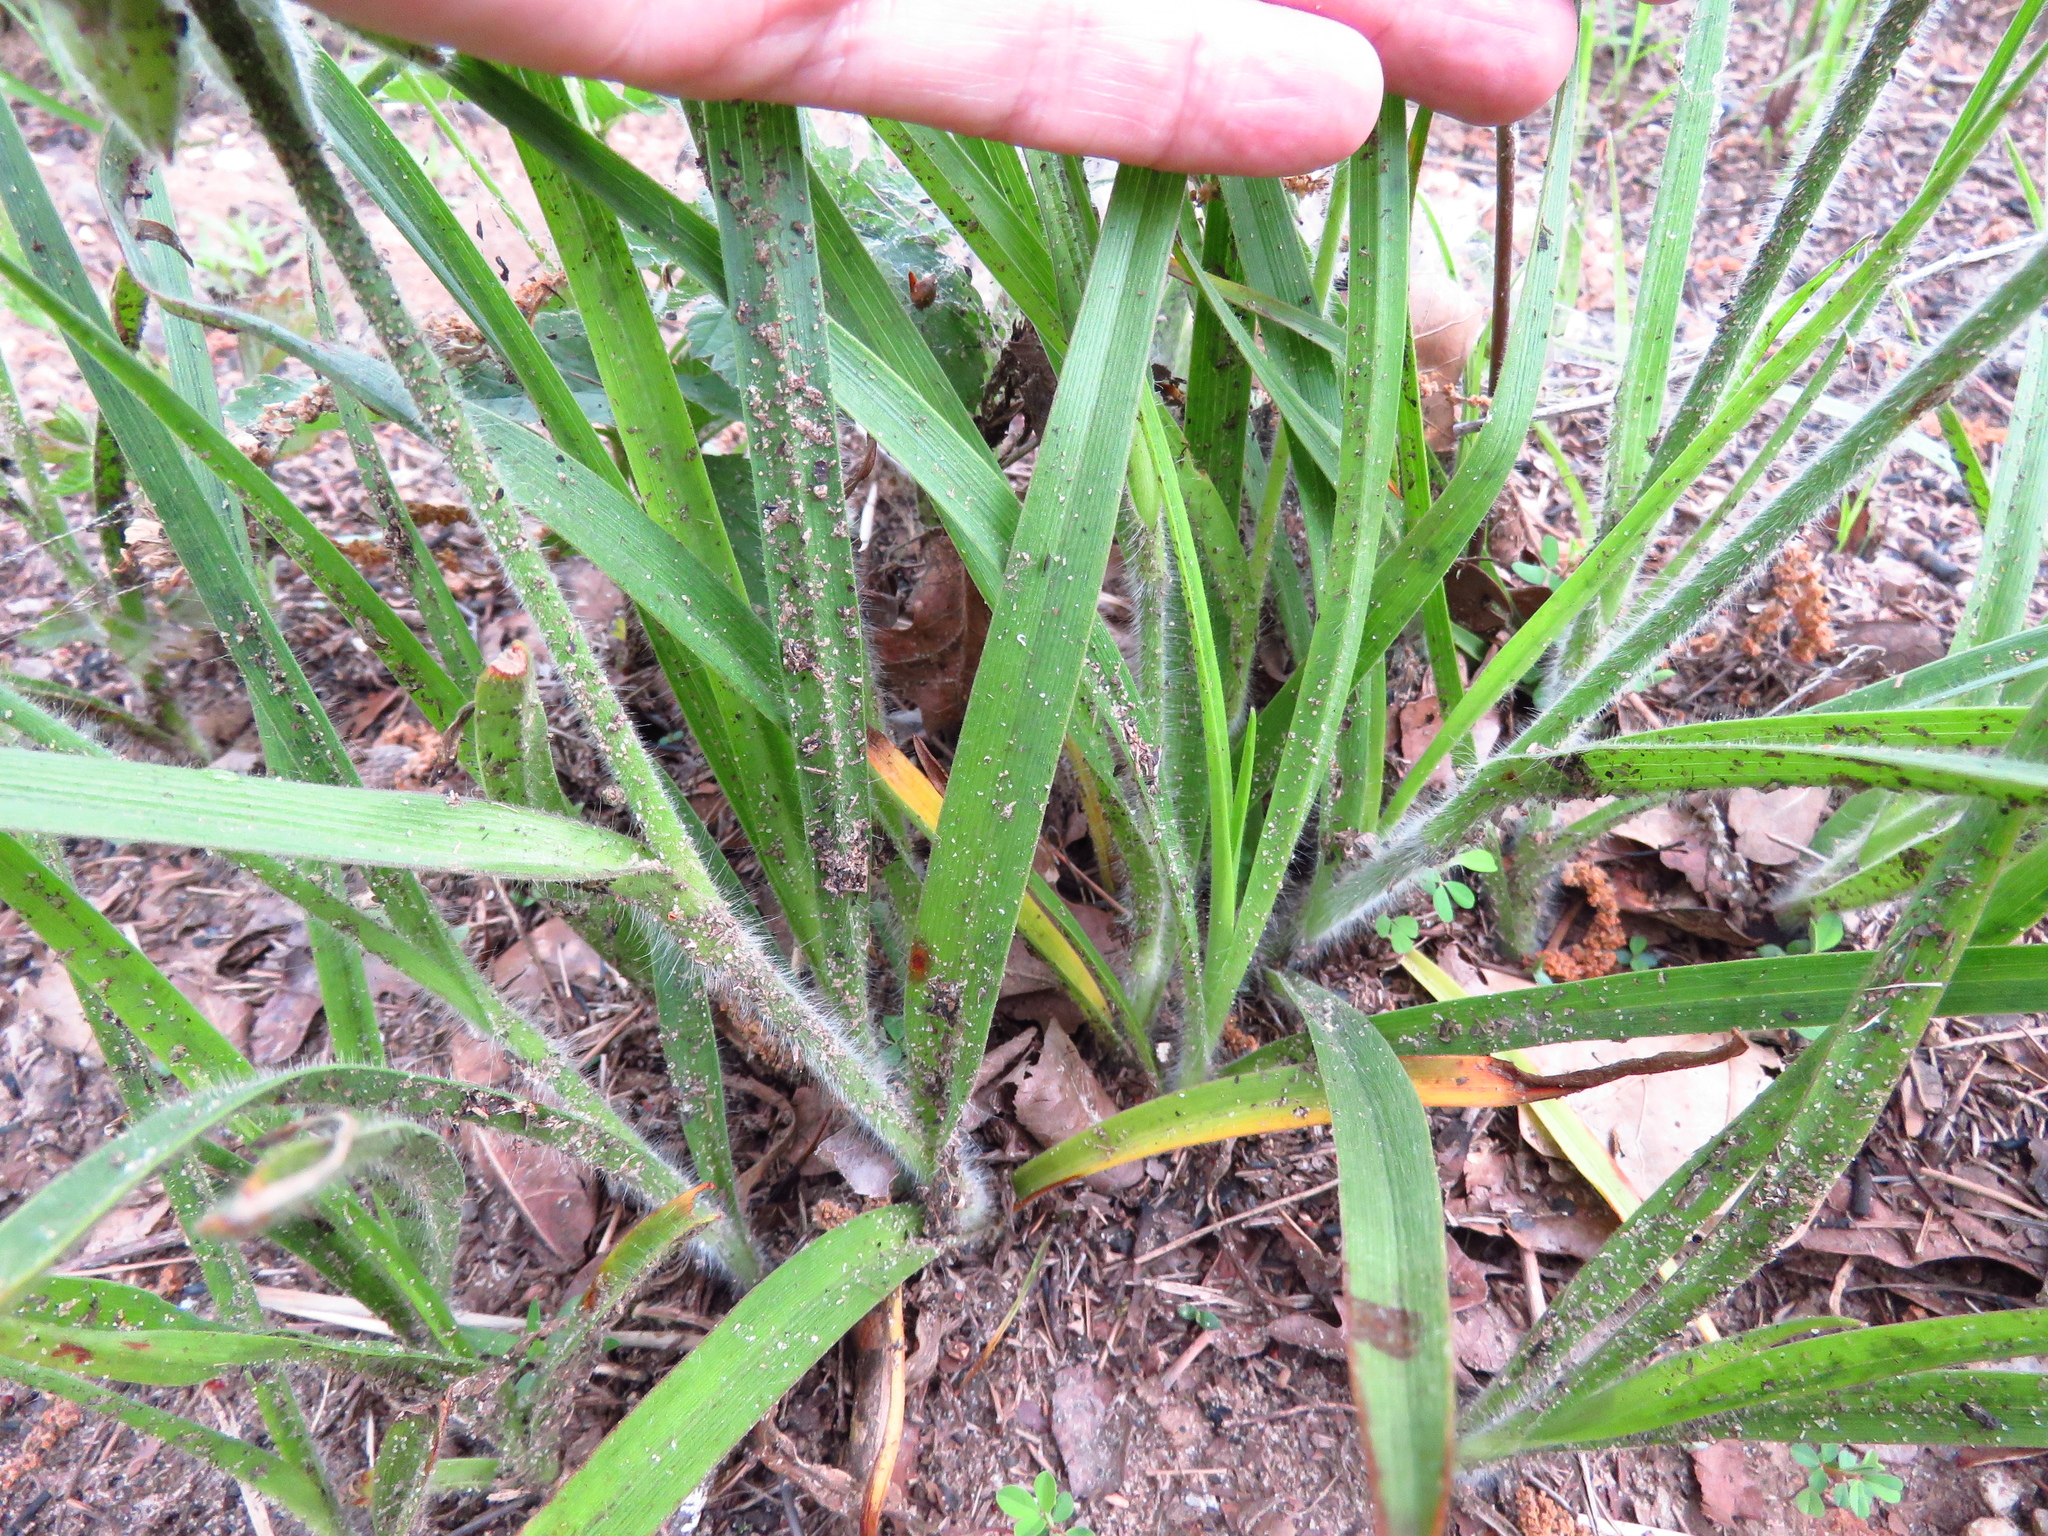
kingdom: Plantae
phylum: Tracheophyta
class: Liliopsida
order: Commelinales
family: Commelinaceae
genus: Tradescantia
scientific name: Tradescantia hirsutiflora
